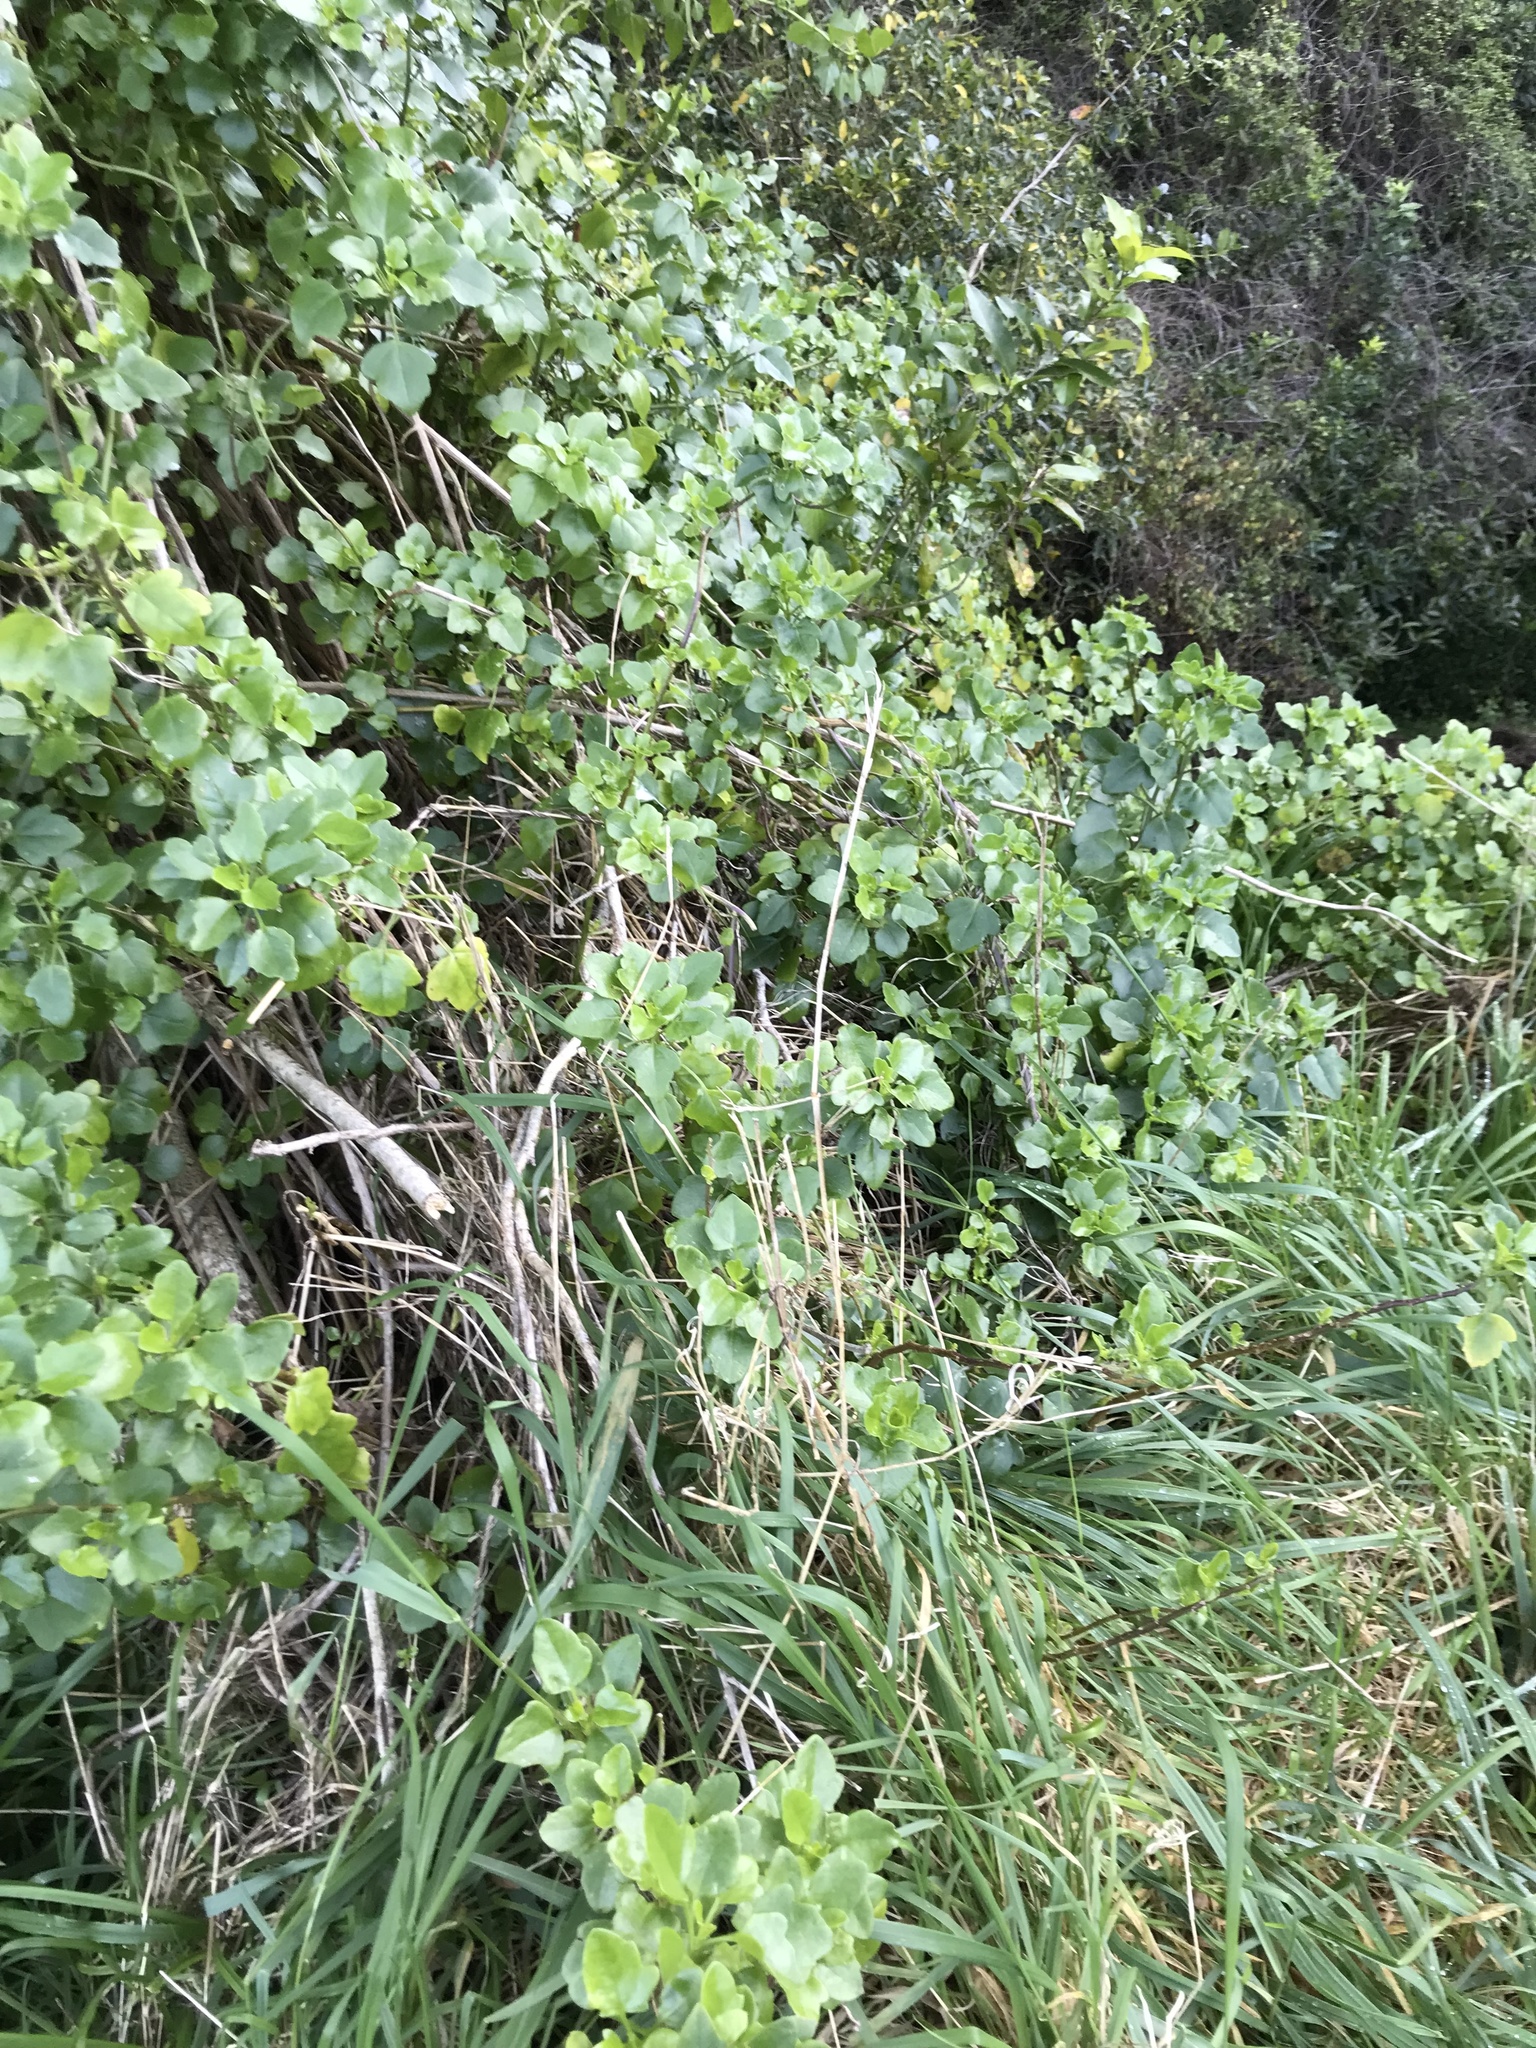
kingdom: Plantae
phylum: Tracheophyta
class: Magnoliopsida
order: Asterales
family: Asteraceae
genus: Senecio
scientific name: Senecio angulatus
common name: Climbing groundsel
